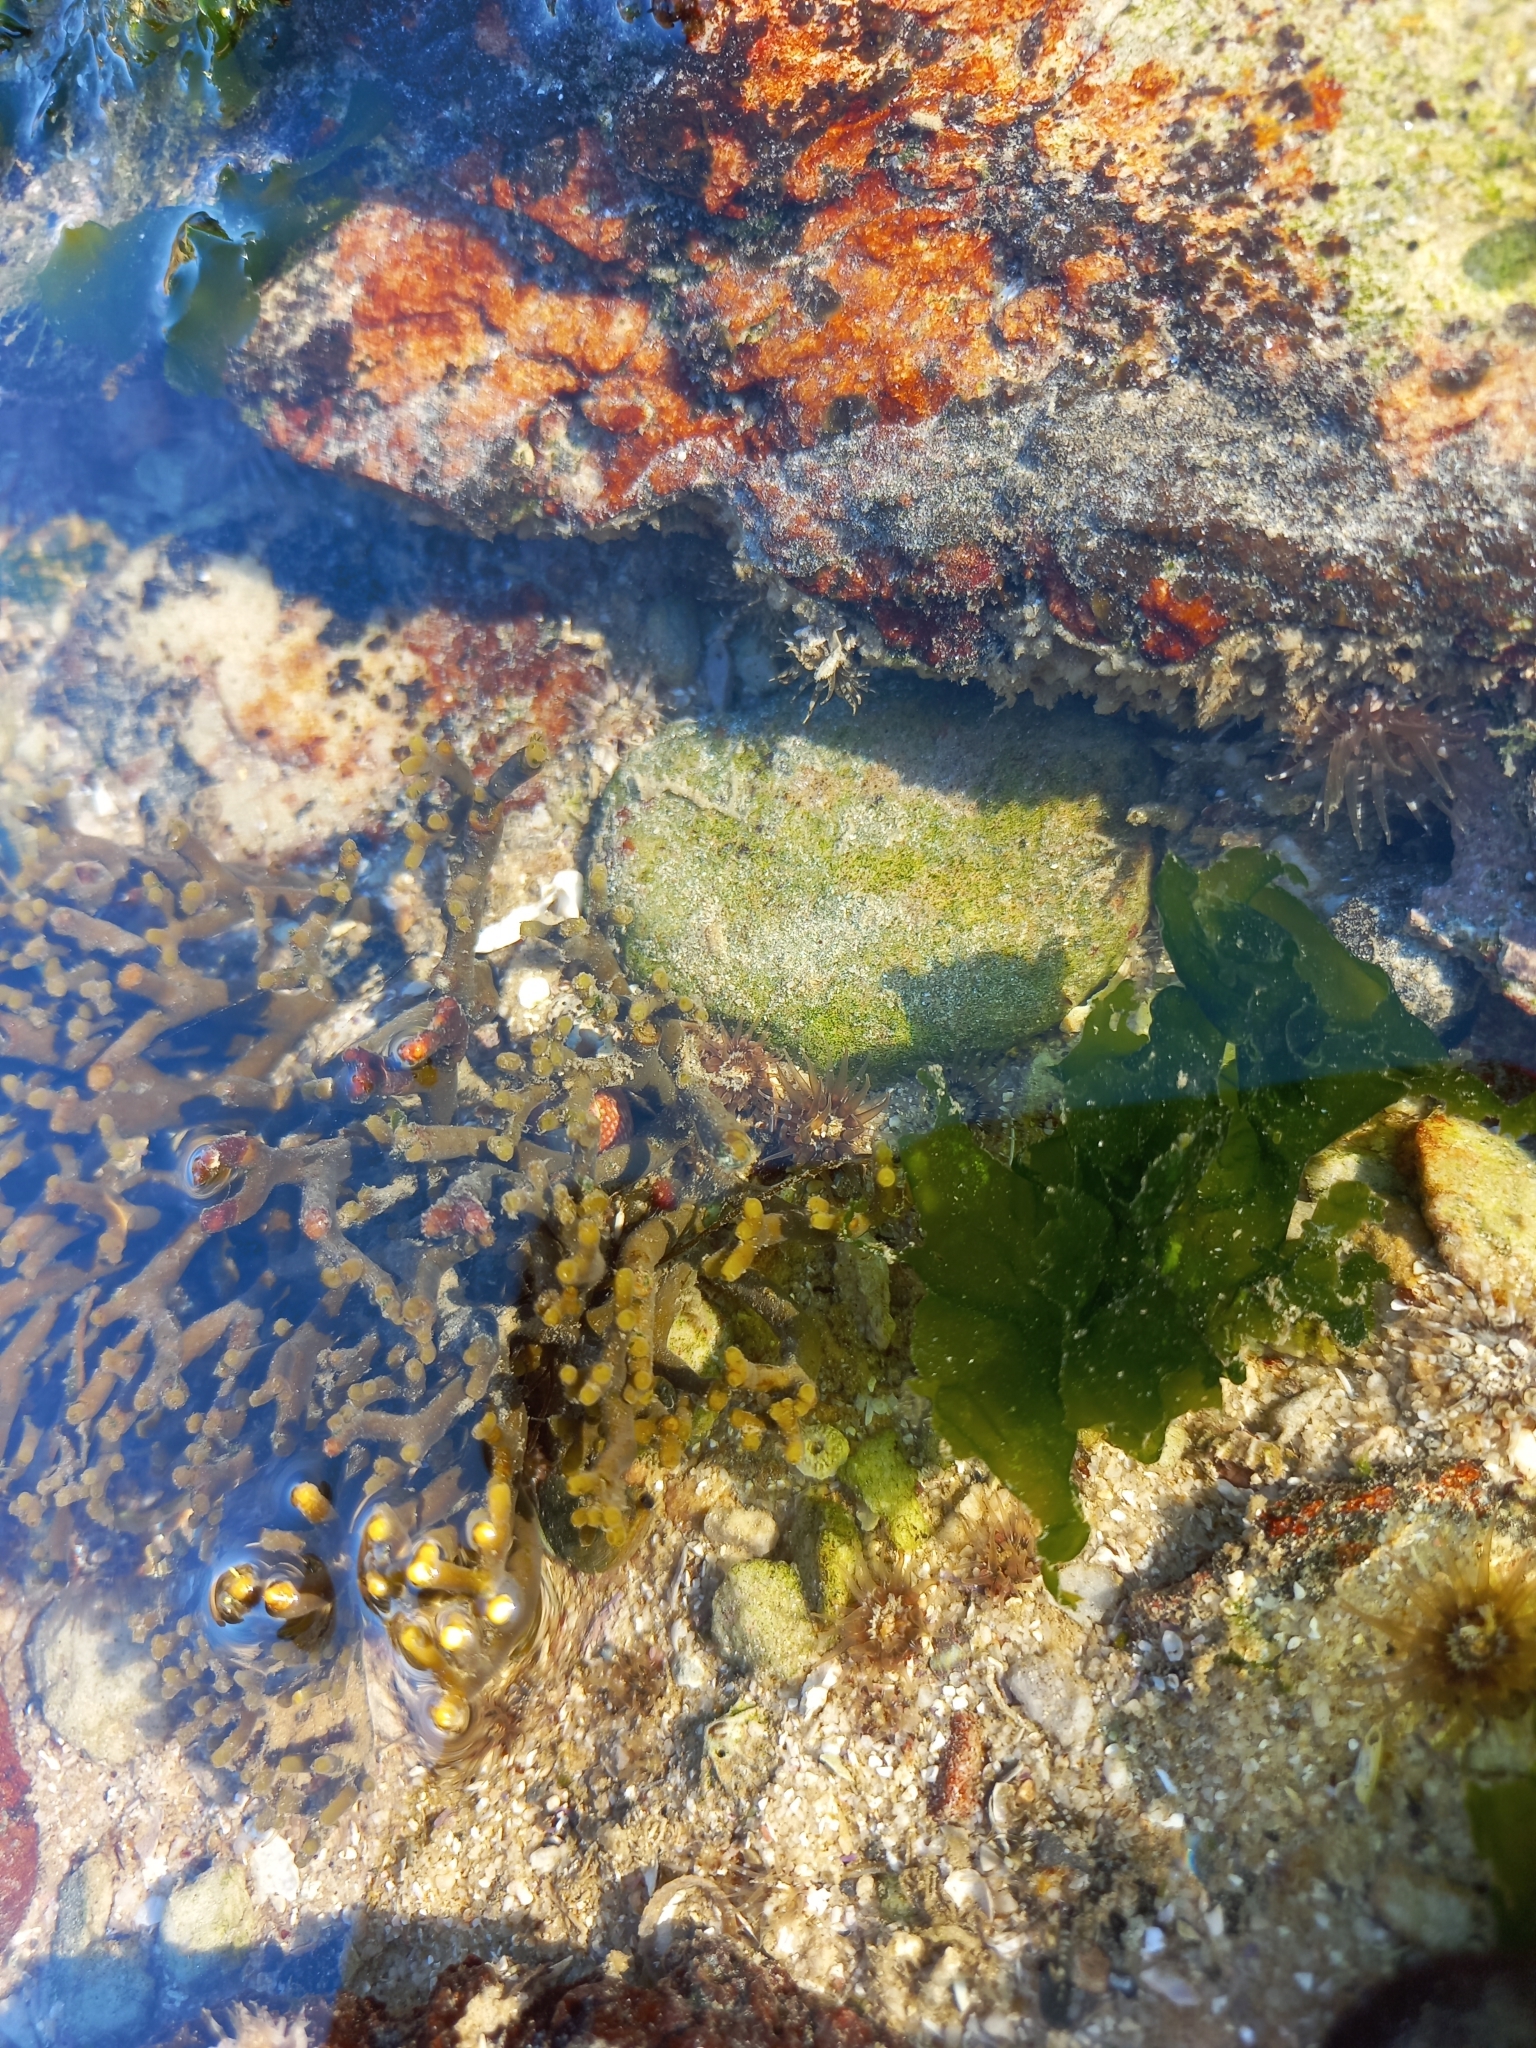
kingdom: Chromista
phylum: Ochrophyta
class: Phaeophyceae
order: Fucales
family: Bifurcariopsidaceae
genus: Bifurcariopsis
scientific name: Bifurcariopsis
